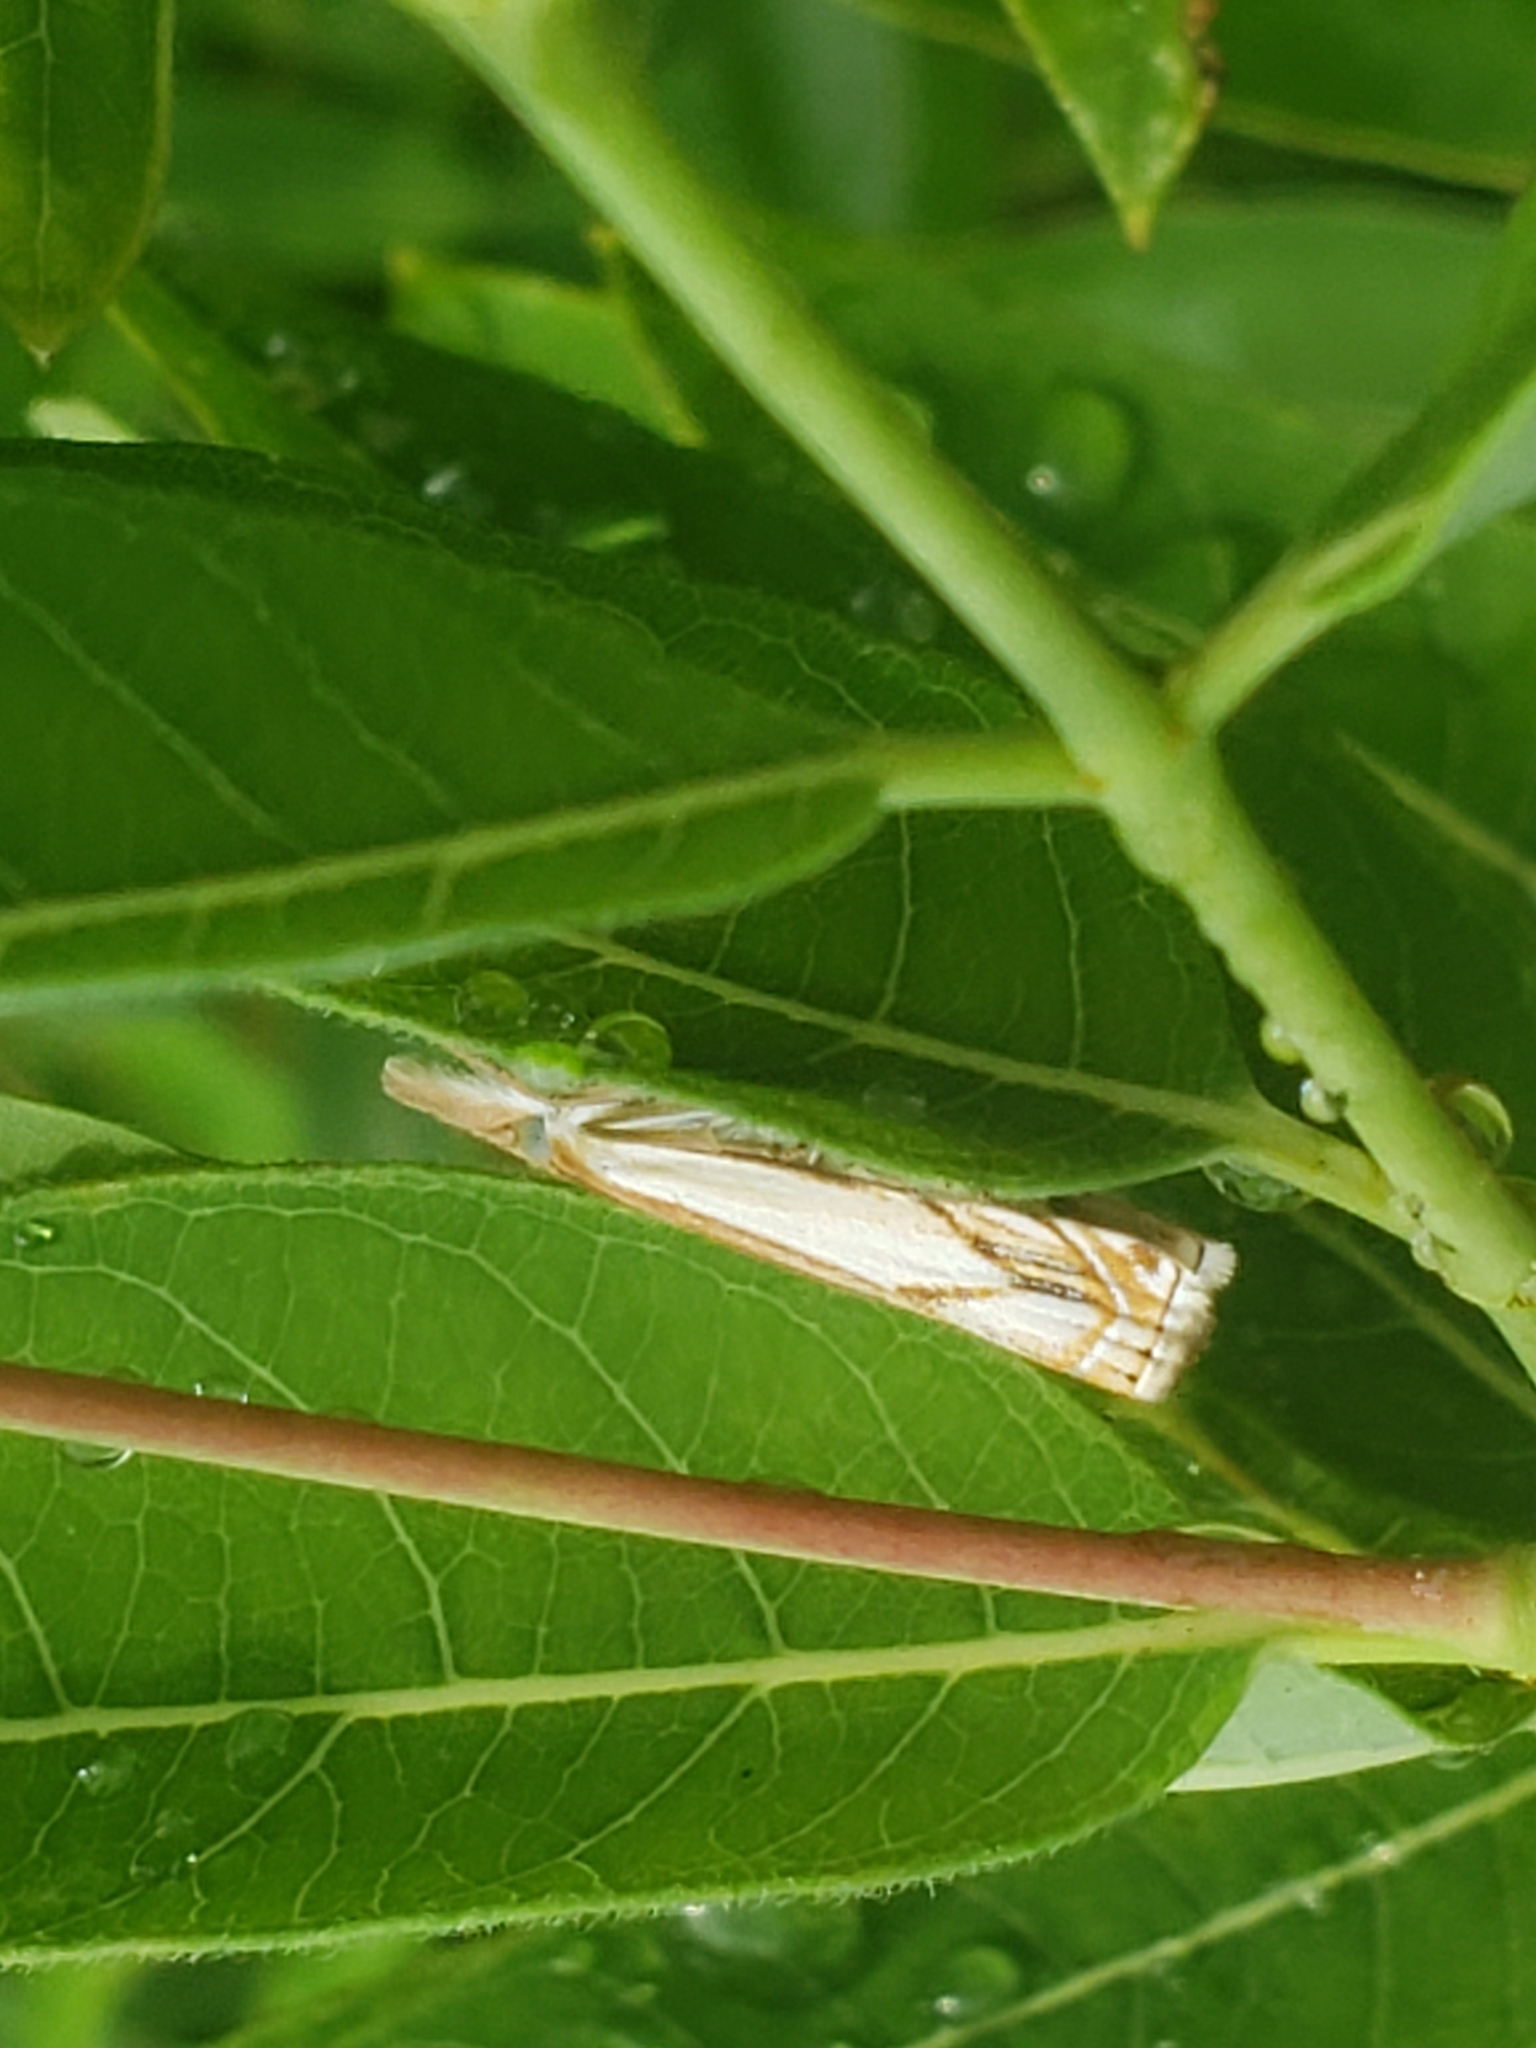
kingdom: Animalia
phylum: Arthropoda
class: Insecta
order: Lepidoptera
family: Crambidae
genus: Crambus
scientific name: Crambus agitatellus
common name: Double-banded grass-veneer
